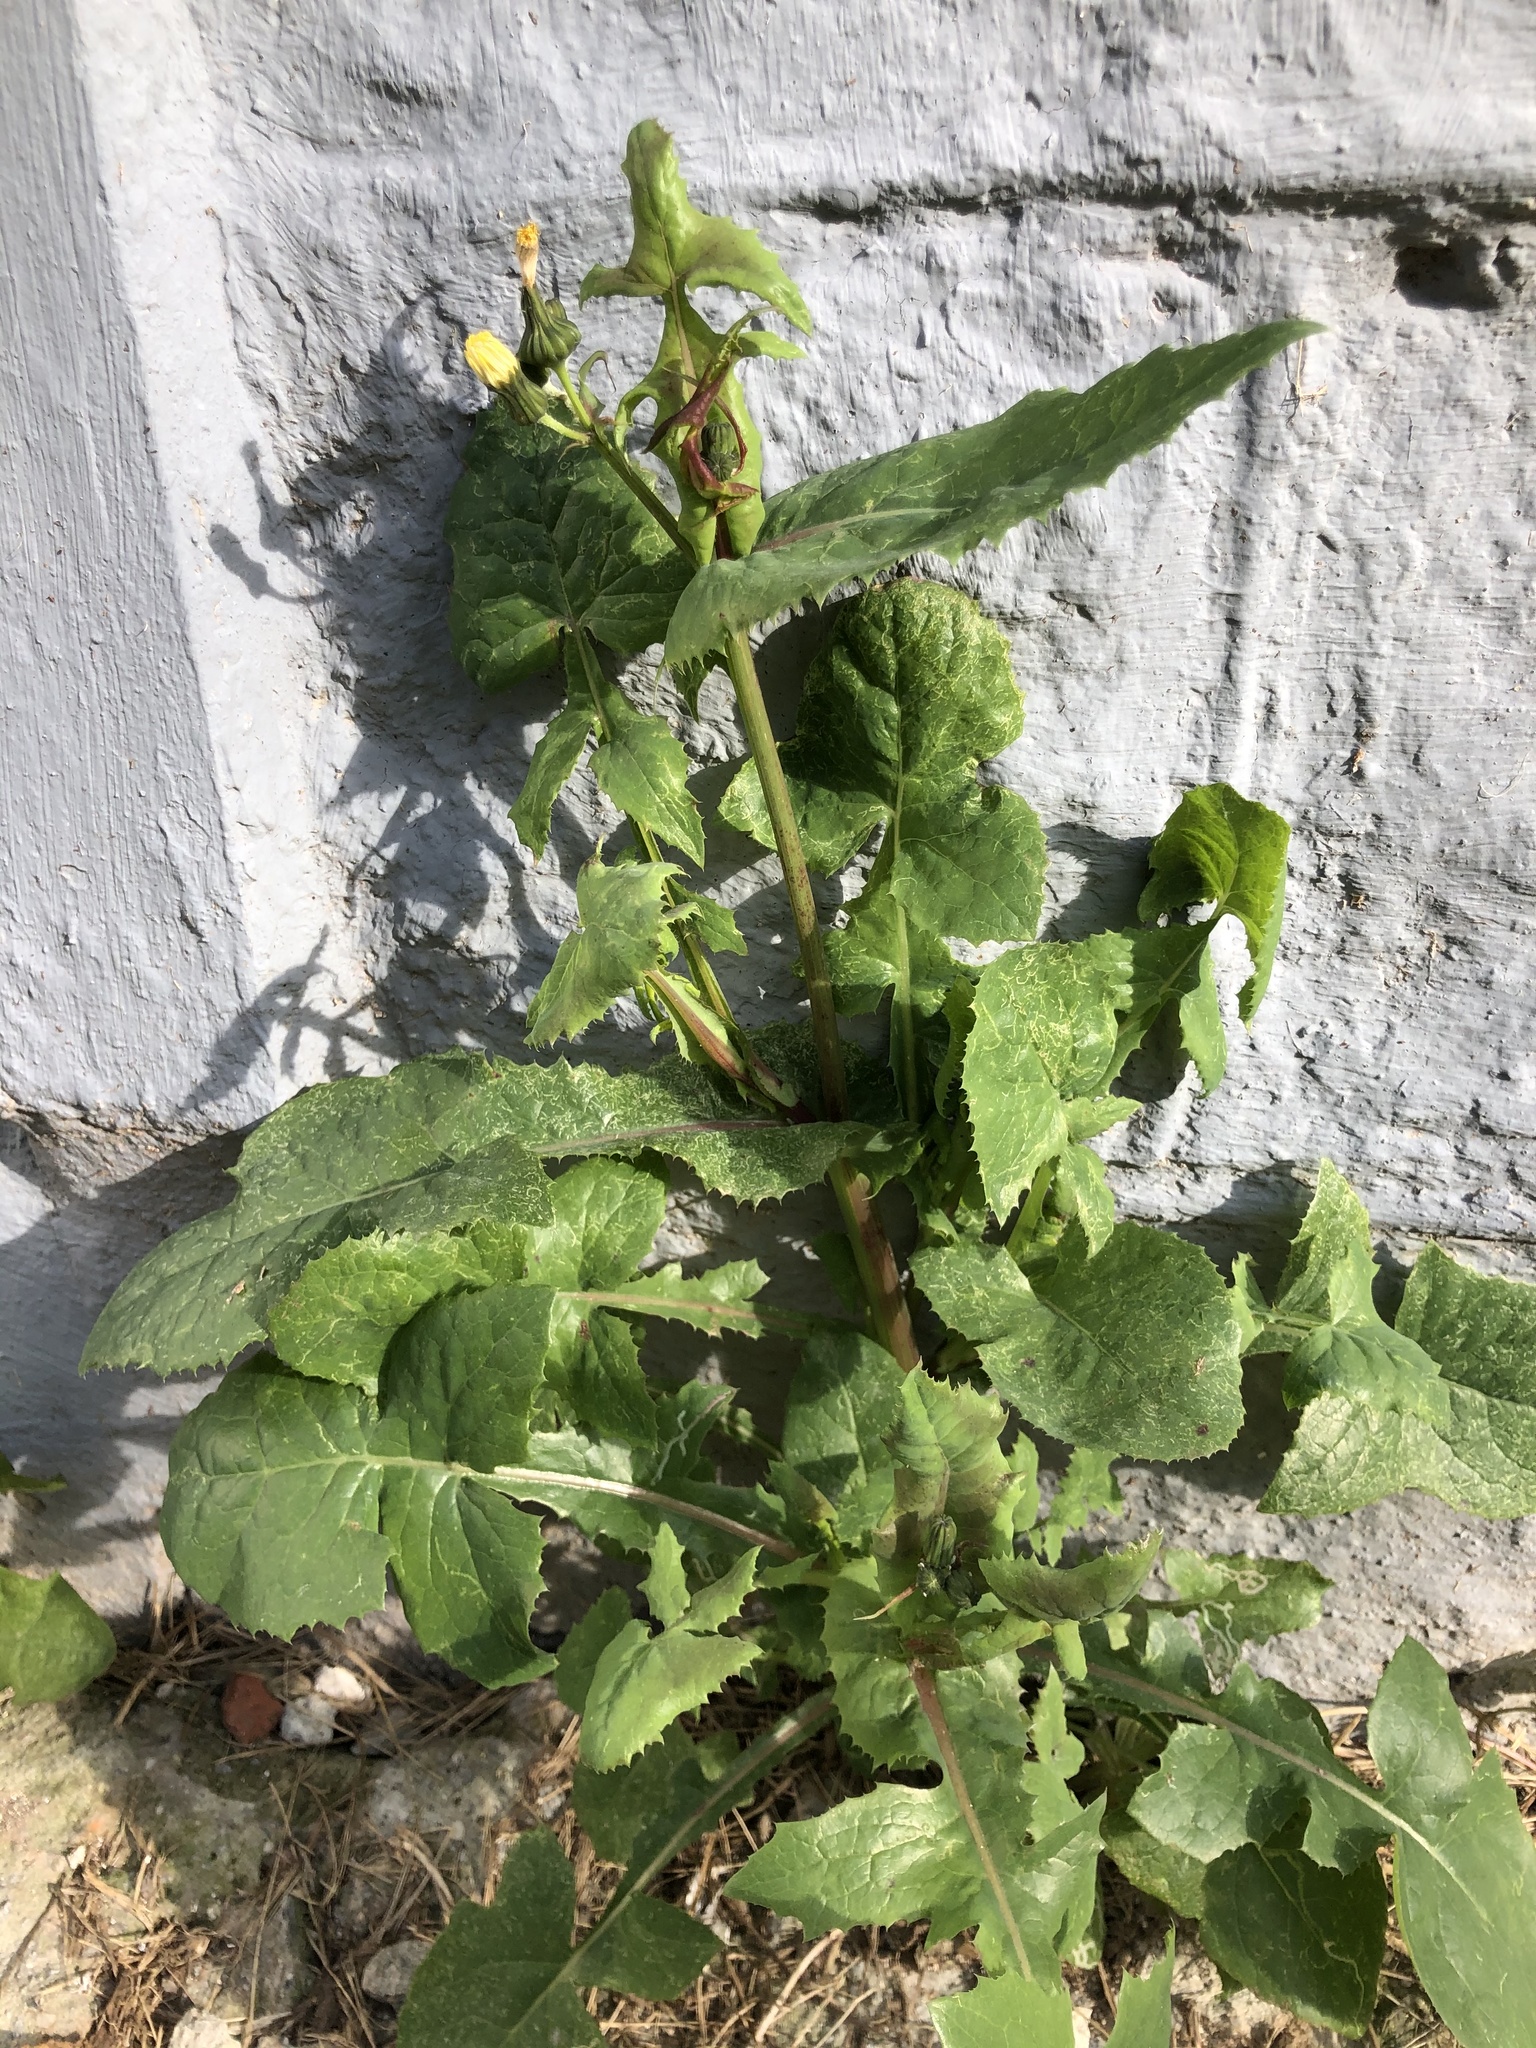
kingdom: Plantae
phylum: Tracheophyta
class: Magnoliopsida
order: Asterales
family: Asteraceae
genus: Sonchus
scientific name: Sonchus oleraceus
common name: Common sowthistle
